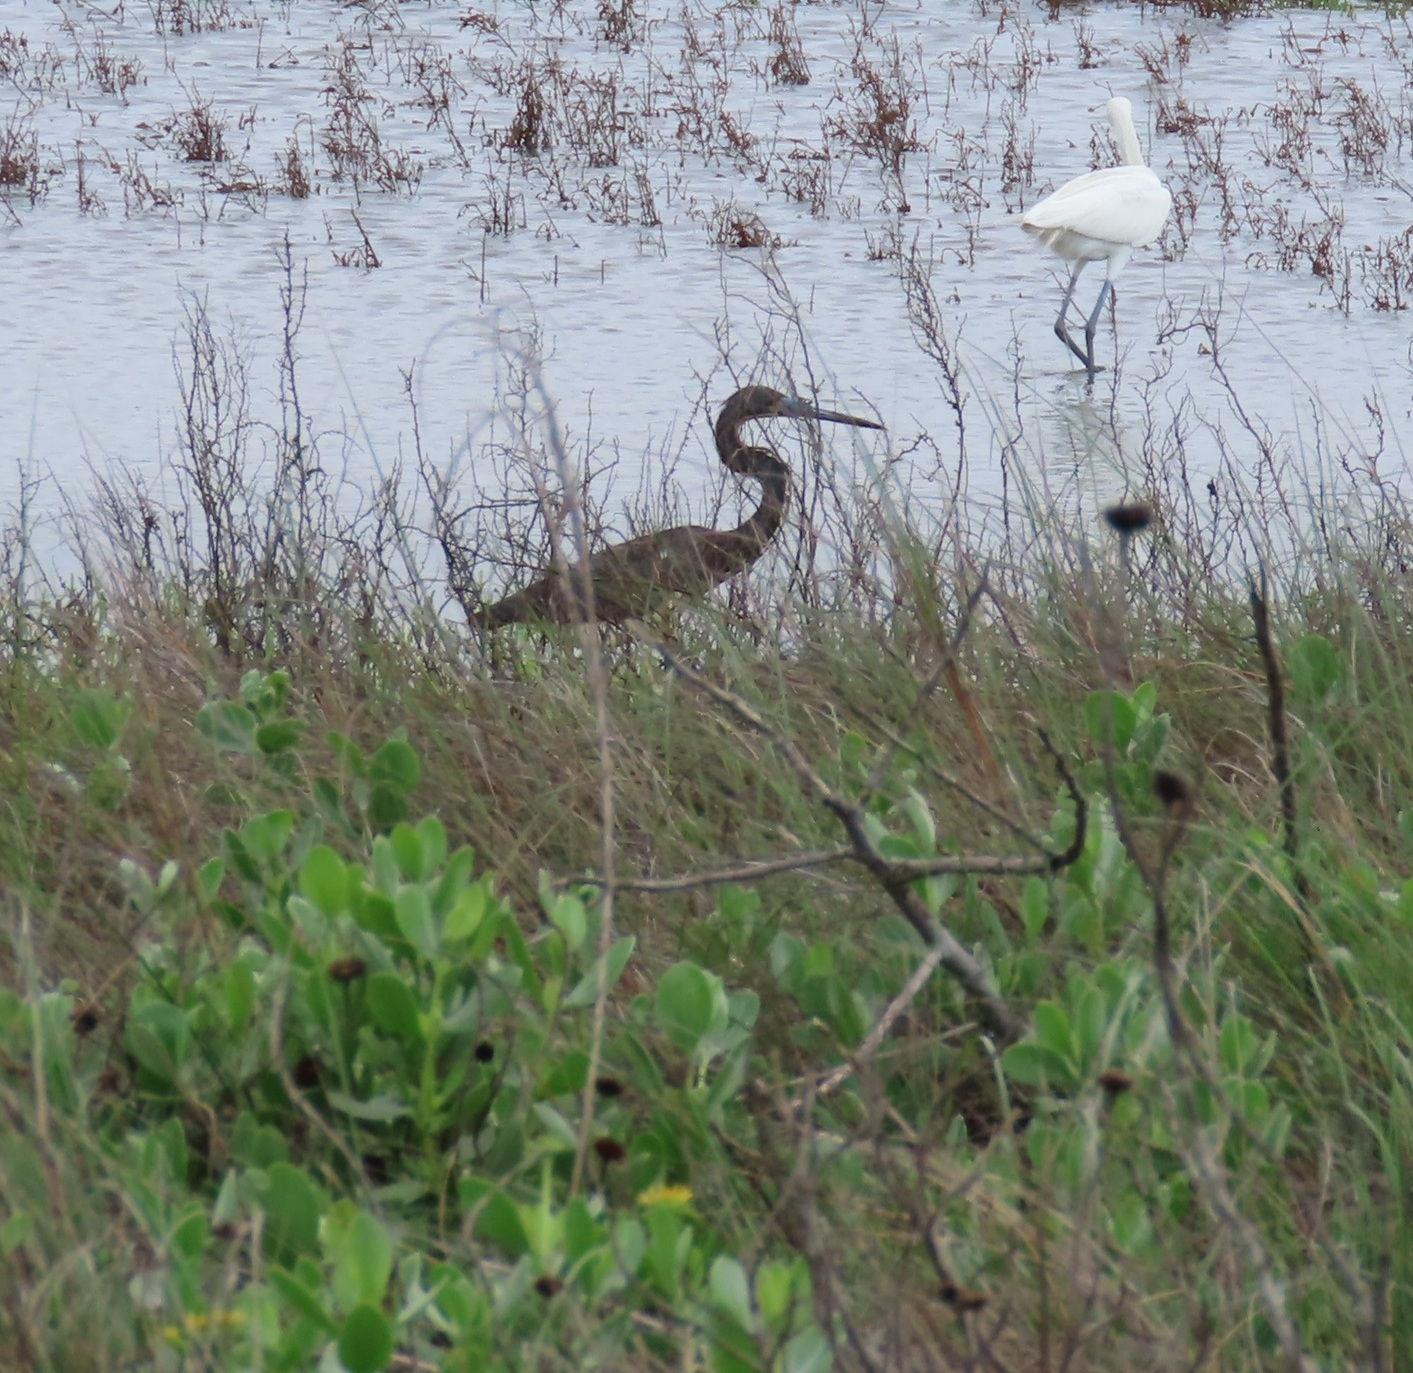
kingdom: Animalia
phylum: Chordata
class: Aves
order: Pelecaniformes
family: Ardeidae
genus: Egretta
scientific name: Egretta tricolor
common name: Tricolored heron
